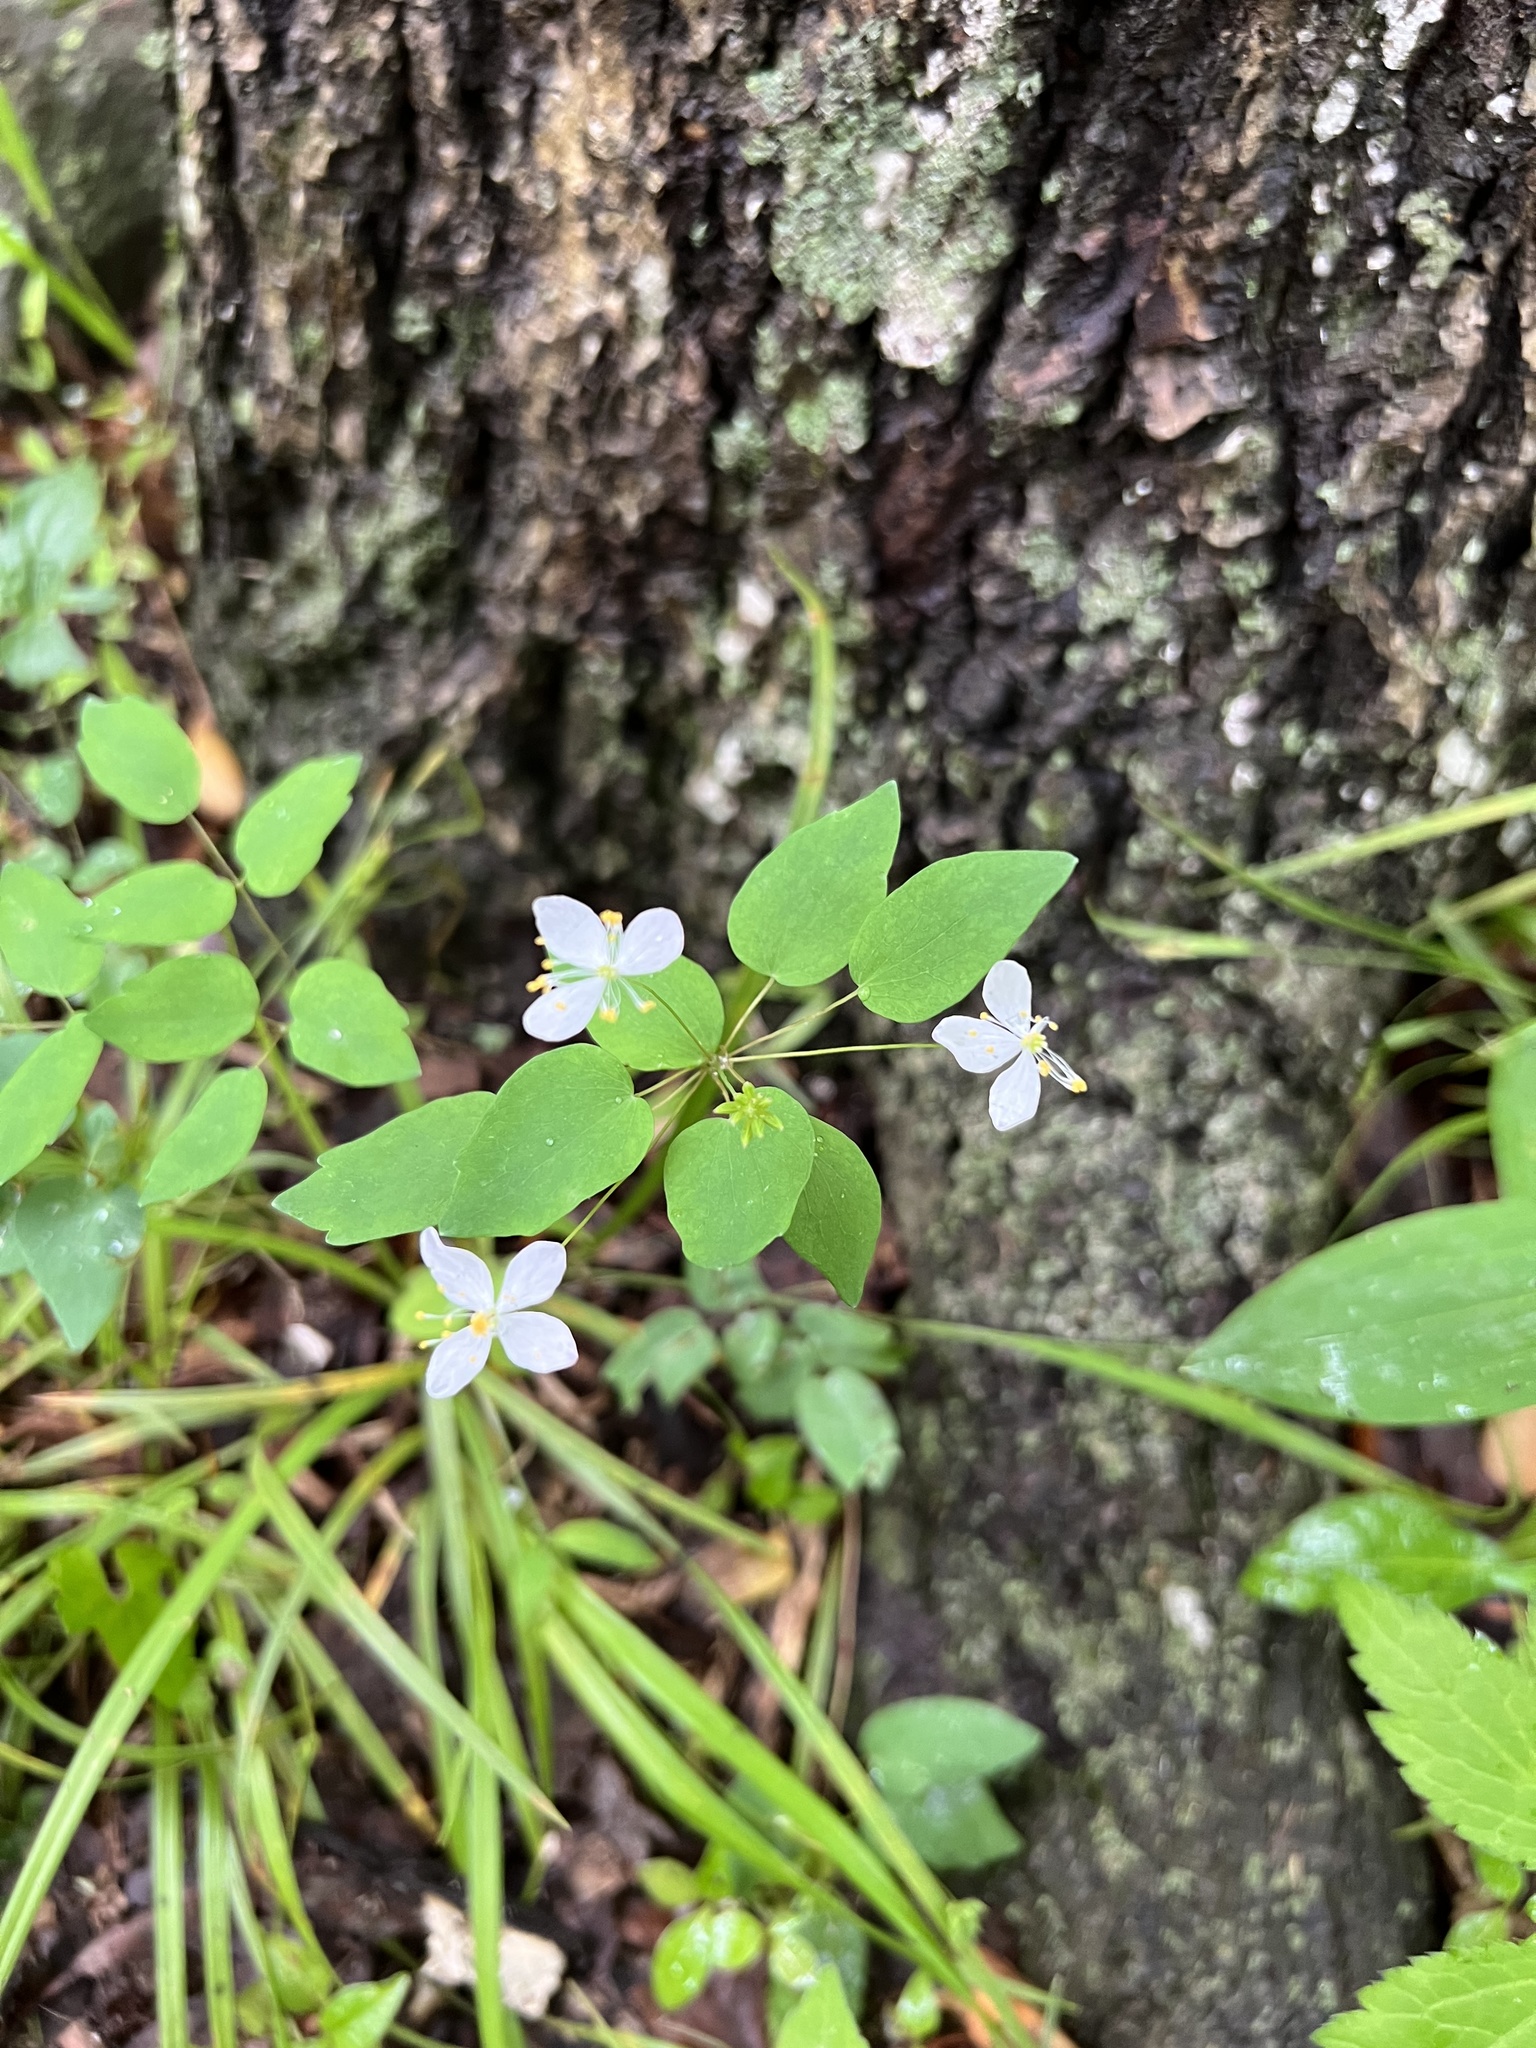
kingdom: Plantae
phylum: Tracheophyta
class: Magnoliopsida
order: Ranunculales
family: Ranunculaceae
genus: Thalictrum
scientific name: Thalictrum thalictroides
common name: Rue-anemone
